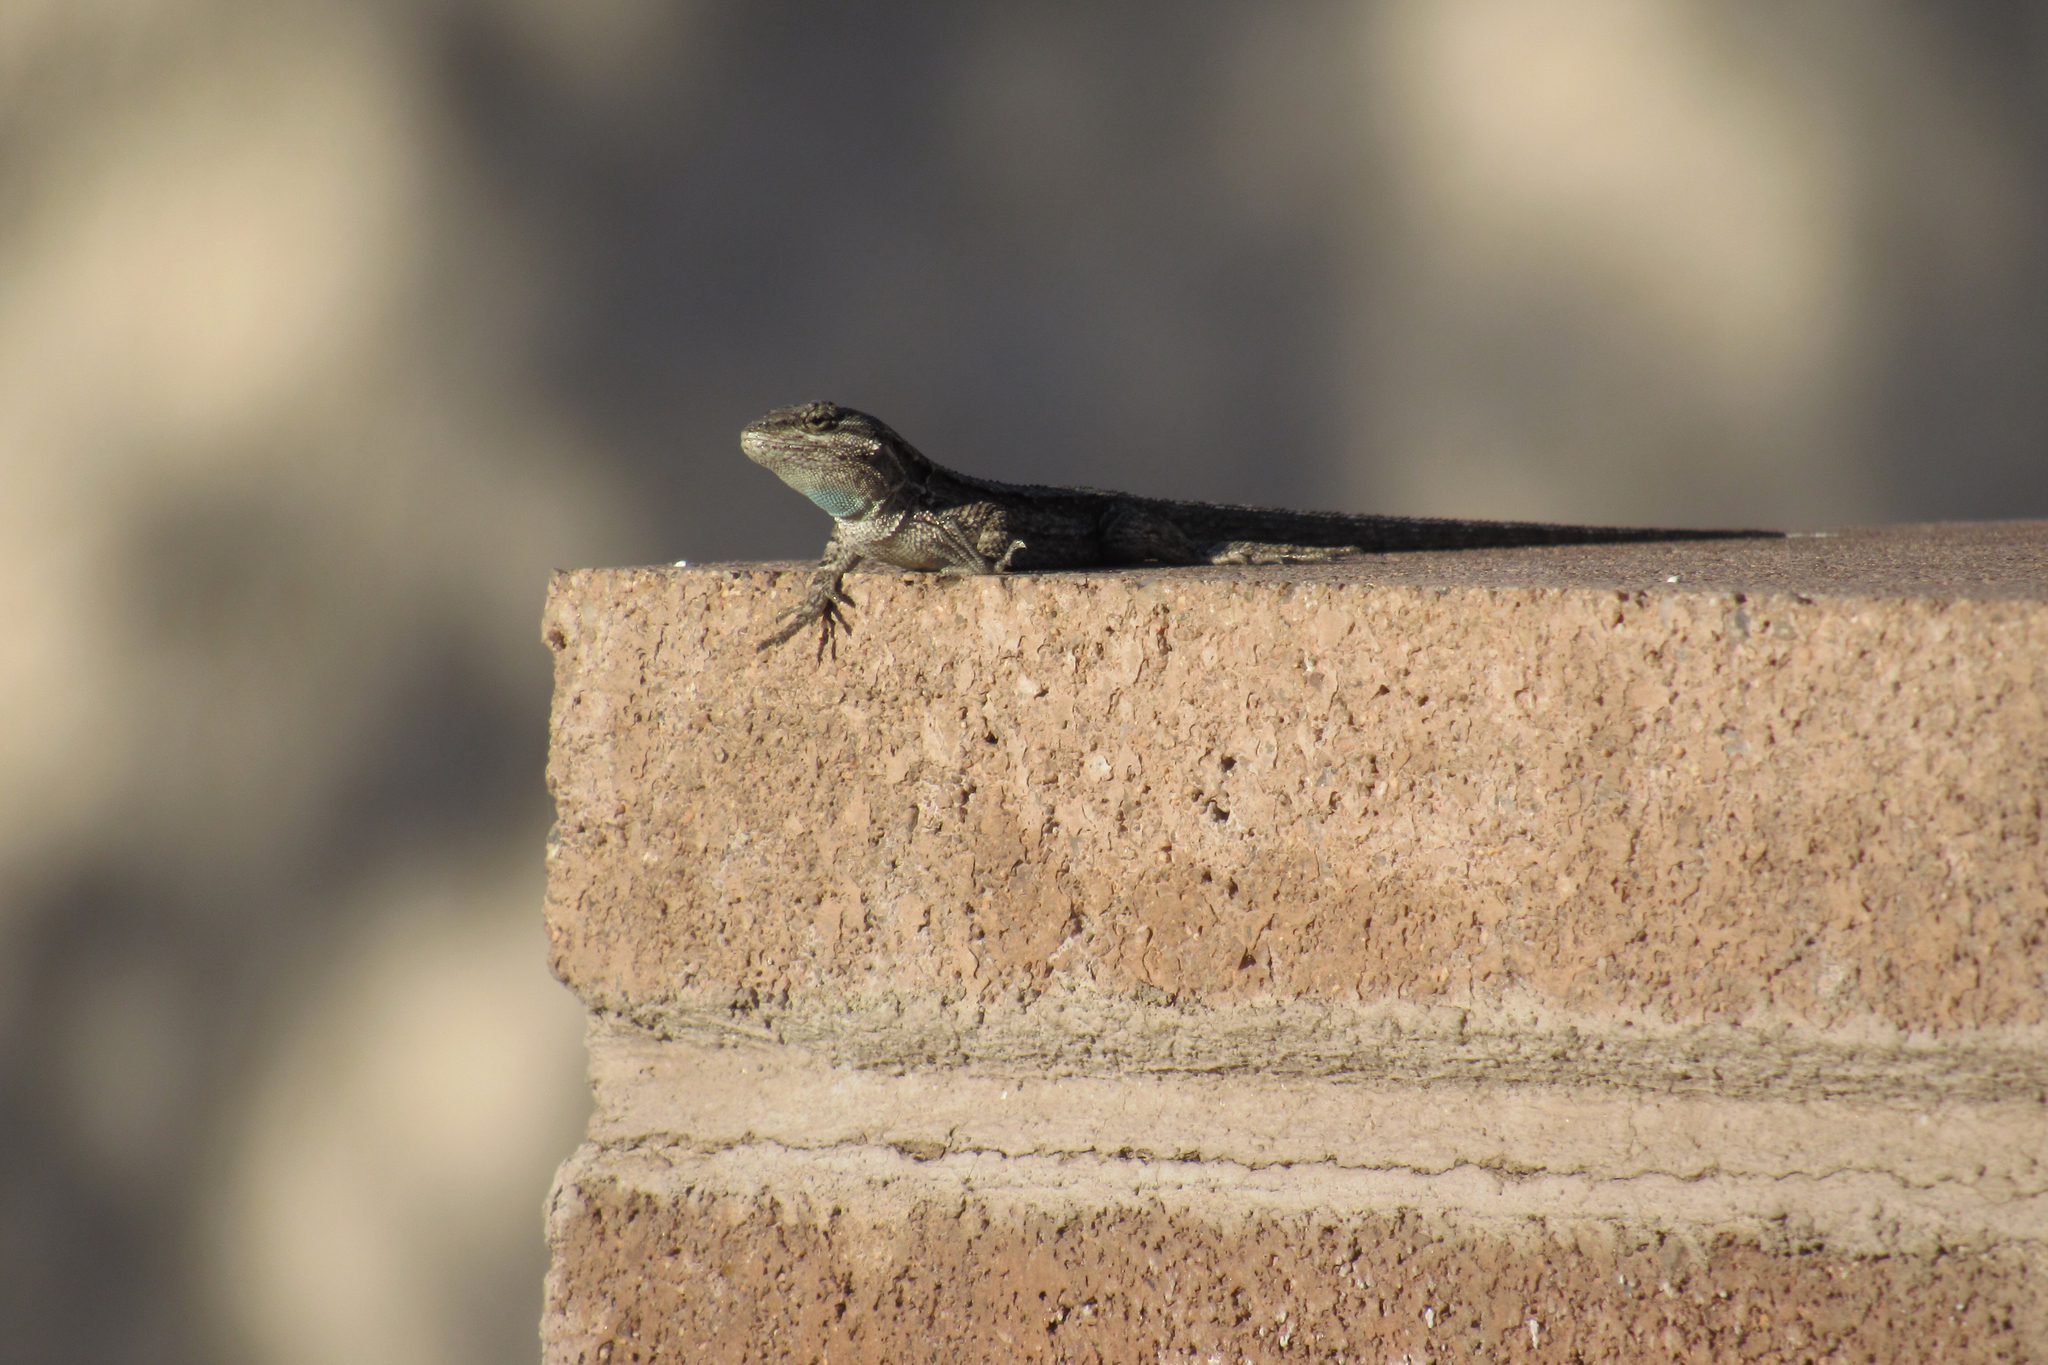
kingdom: Animalia
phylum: Chordata
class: Squamata
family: Phrynosomatidae
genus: Urosaurus
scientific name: Urosaurus ornatus
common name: Ornate tree lizard
